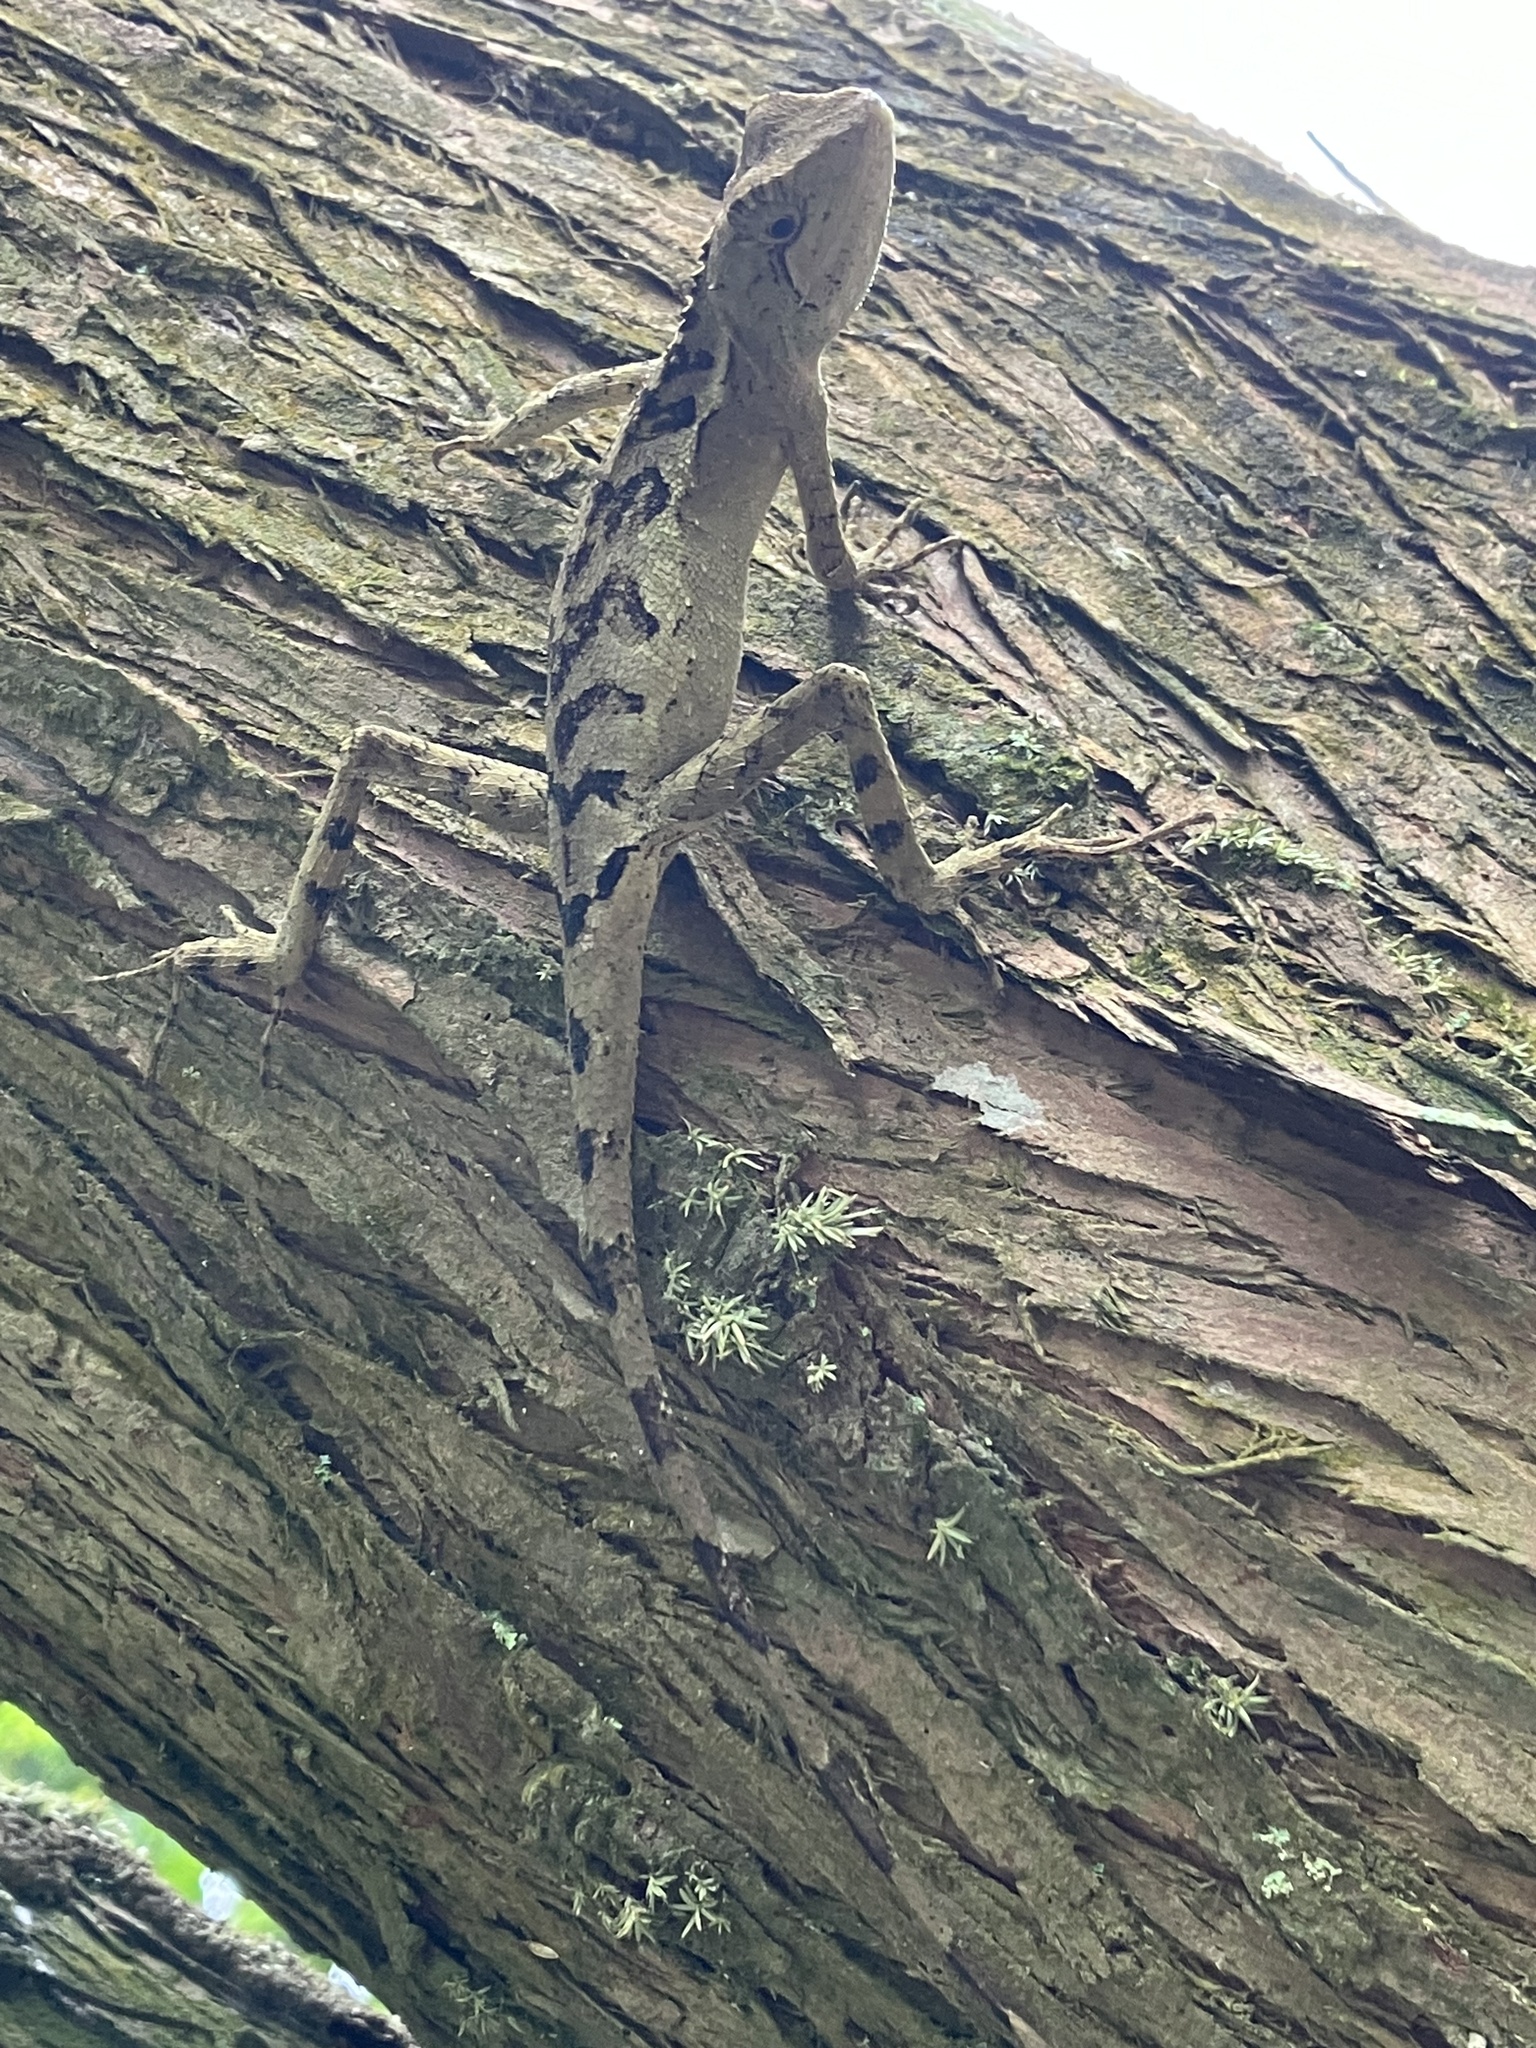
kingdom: Animalia
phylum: Chordata
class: Squamata
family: Agamidae
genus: Diploderma
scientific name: Diploderma swinhonis
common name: Taiwan japalure
